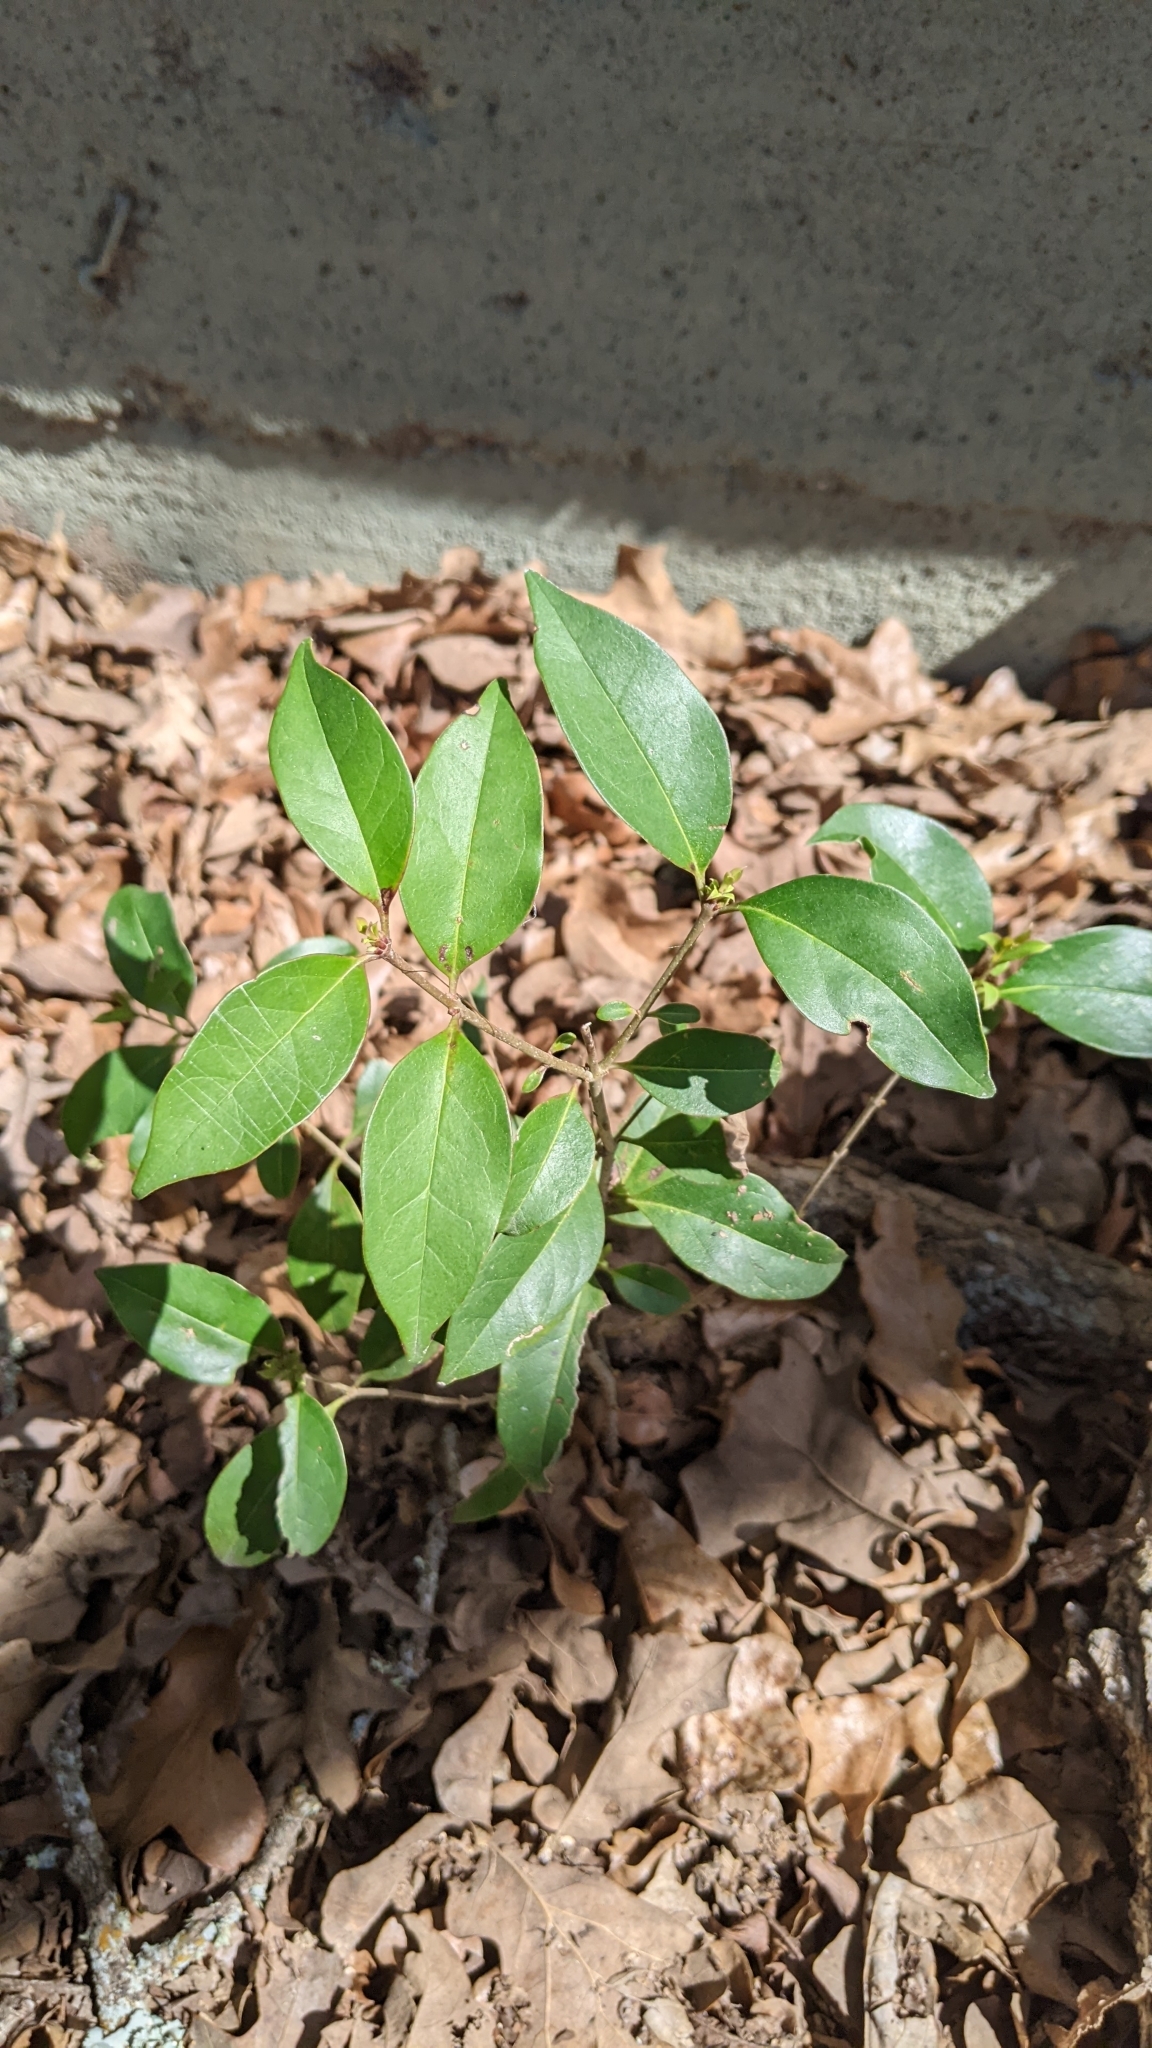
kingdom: Plantae
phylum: Tracheophyta
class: Magnoliopsida
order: Lamiales
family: Oleaceae
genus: Ligustrum
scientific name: Ligustrum lucidum
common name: Glossy privet
